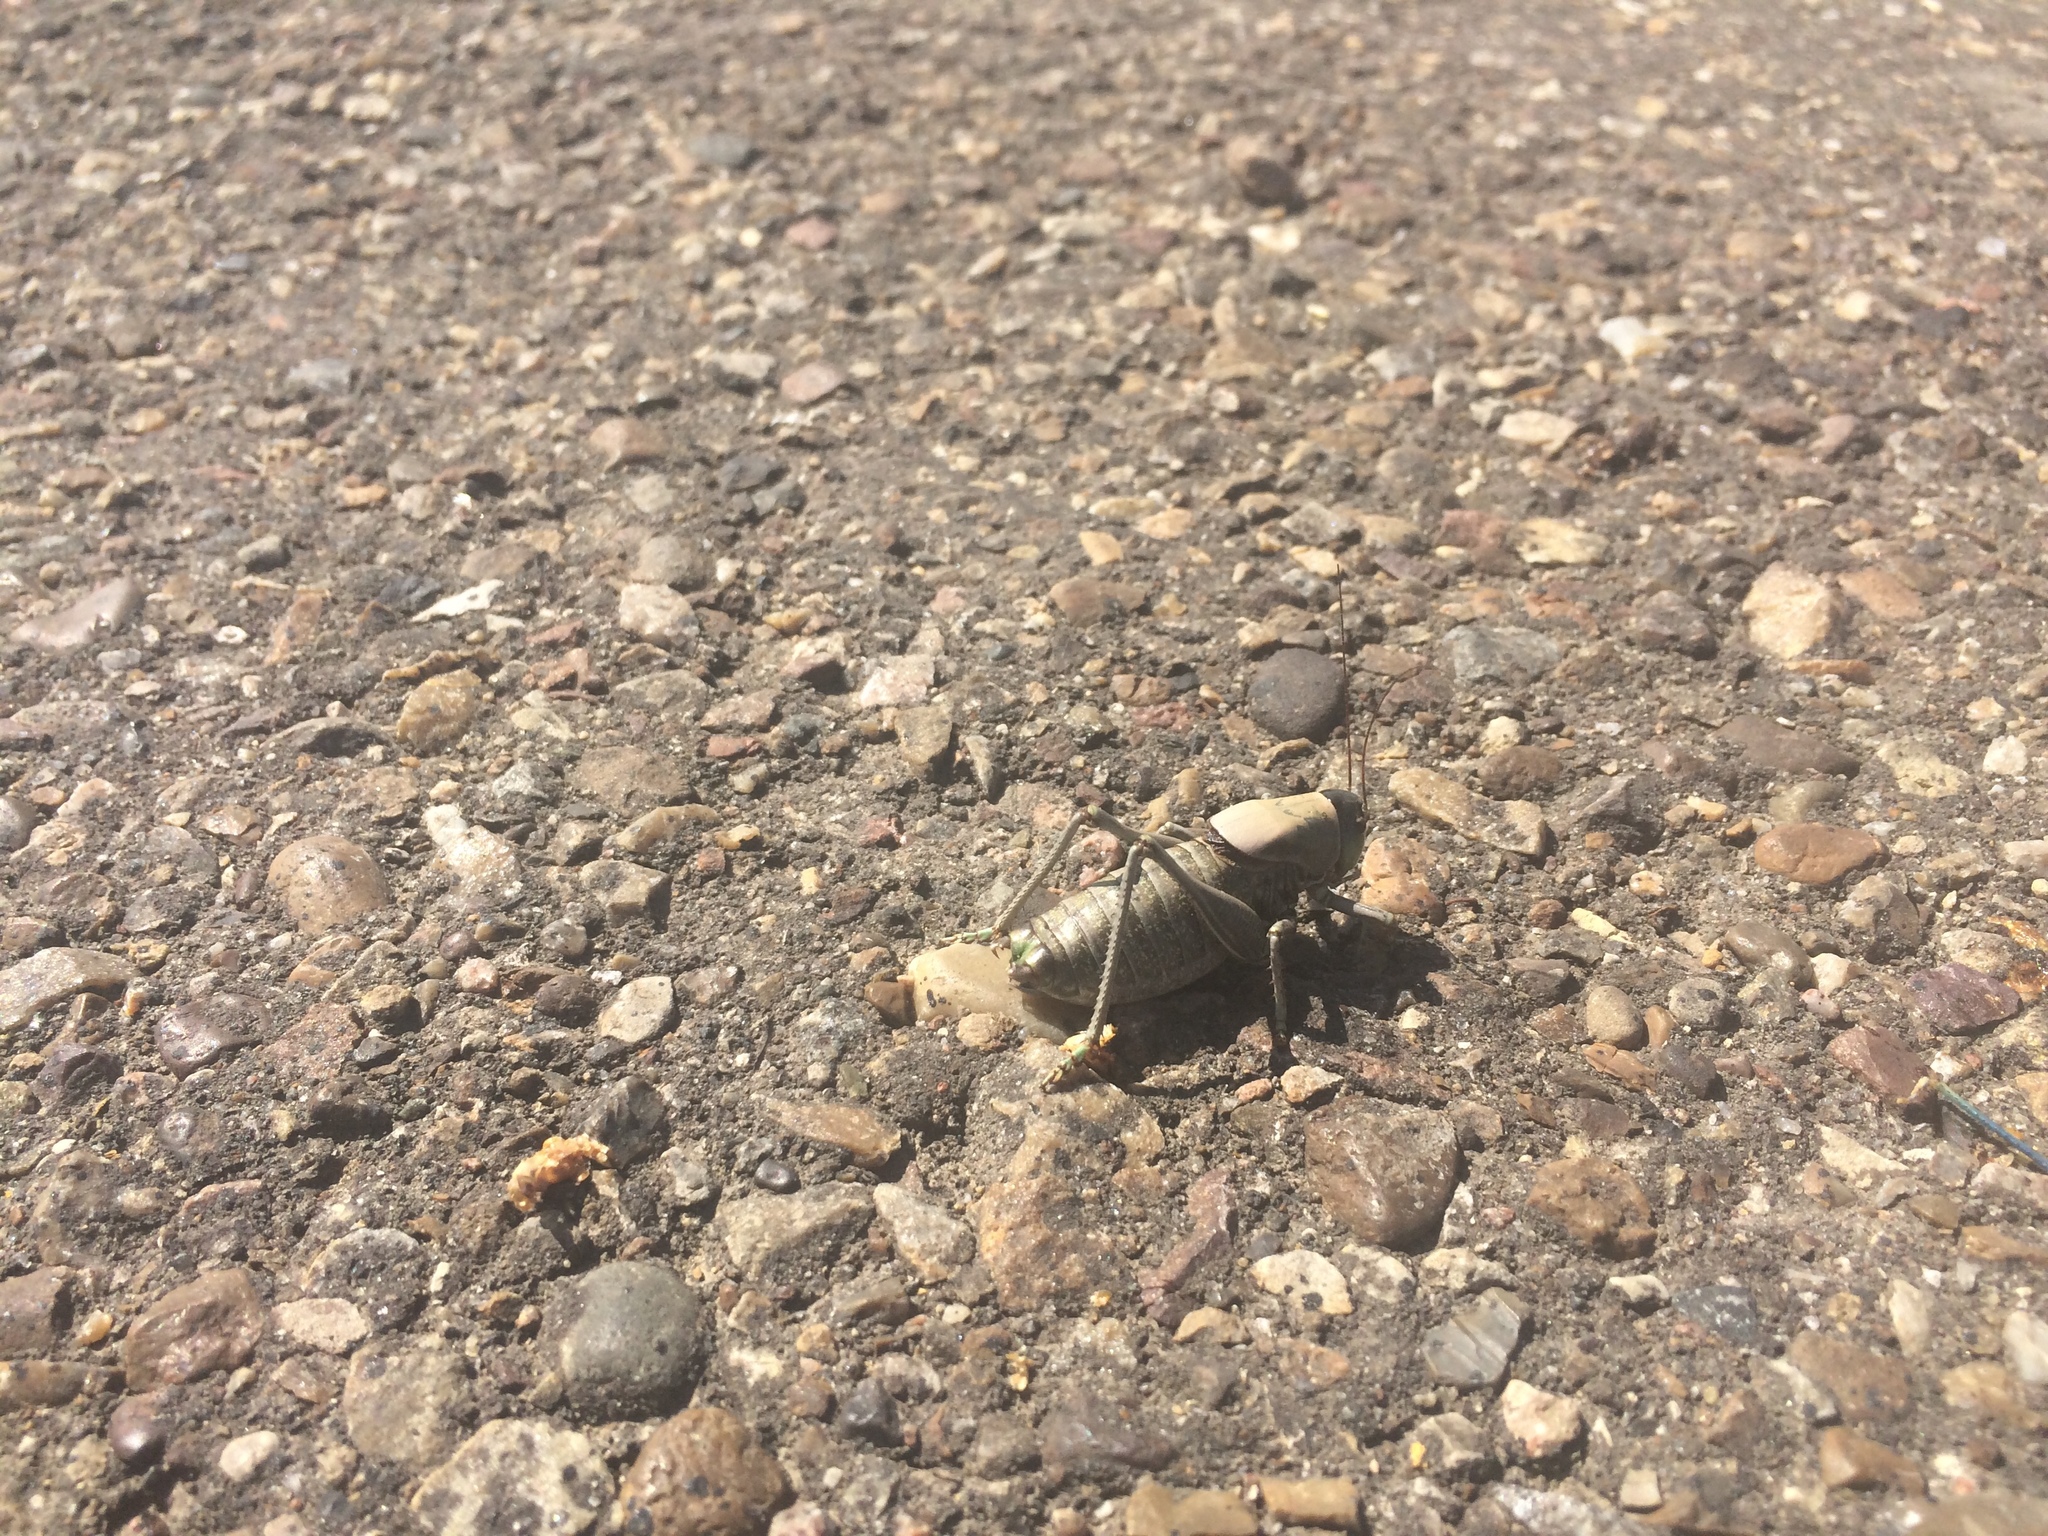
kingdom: Animalia
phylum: Arthropoda
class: Insecta
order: Orthoptera
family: Tettigoniidae
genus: Anabrus
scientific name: Anabrus simplex
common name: Mormon cricket
